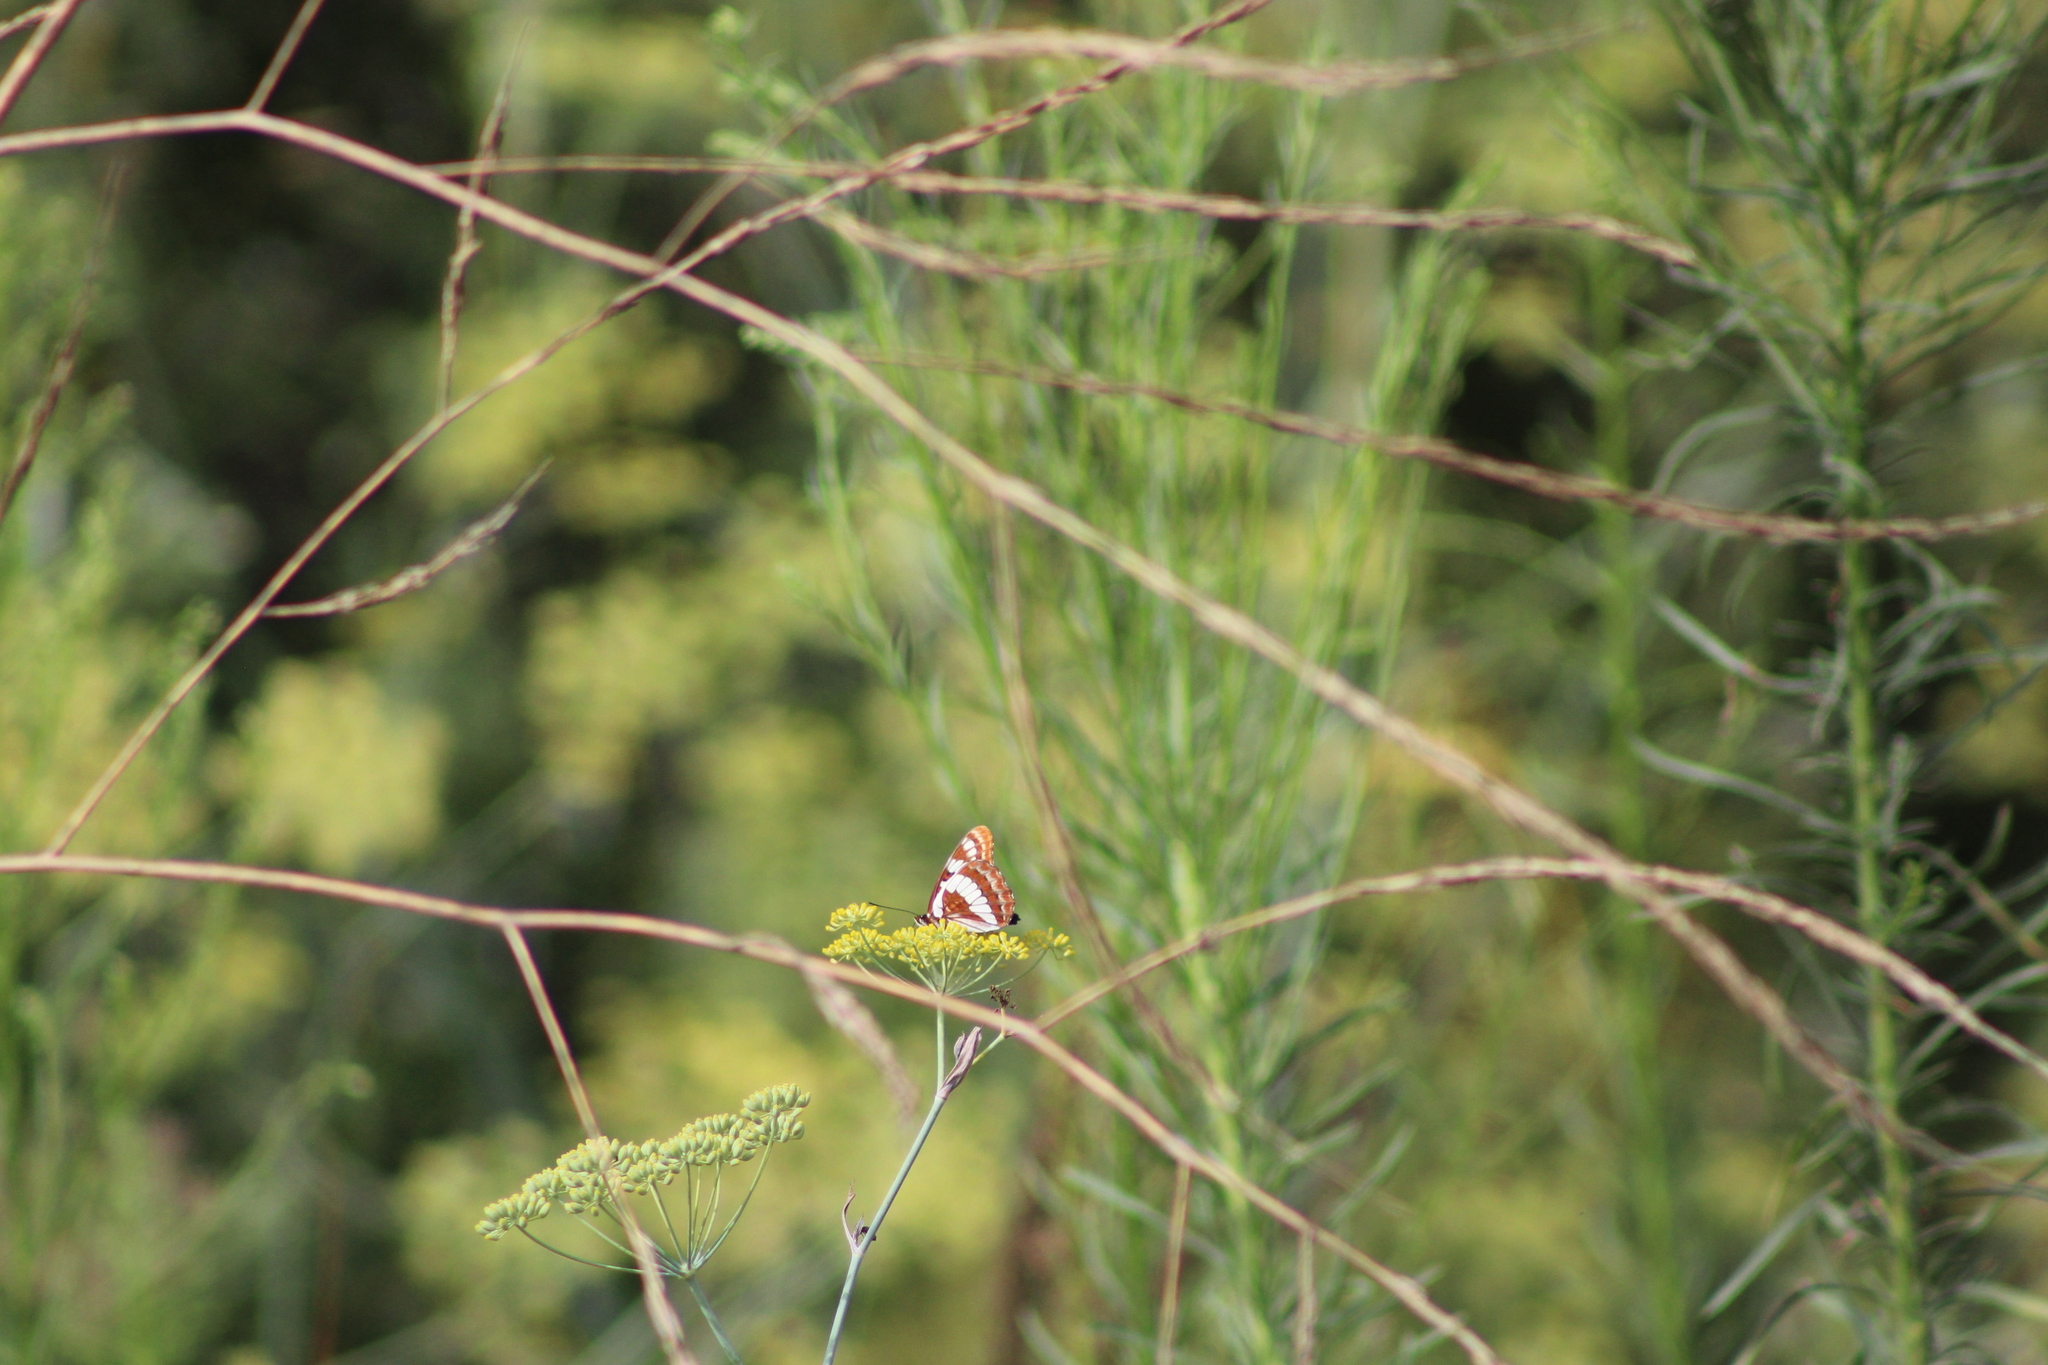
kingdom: Animalia
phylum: Arthropoda
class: Insecta
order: Lepidoptera
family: Nymphalidae
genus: Limenitis
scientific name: Limenitis lorquini
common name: Lorquin's admiral
